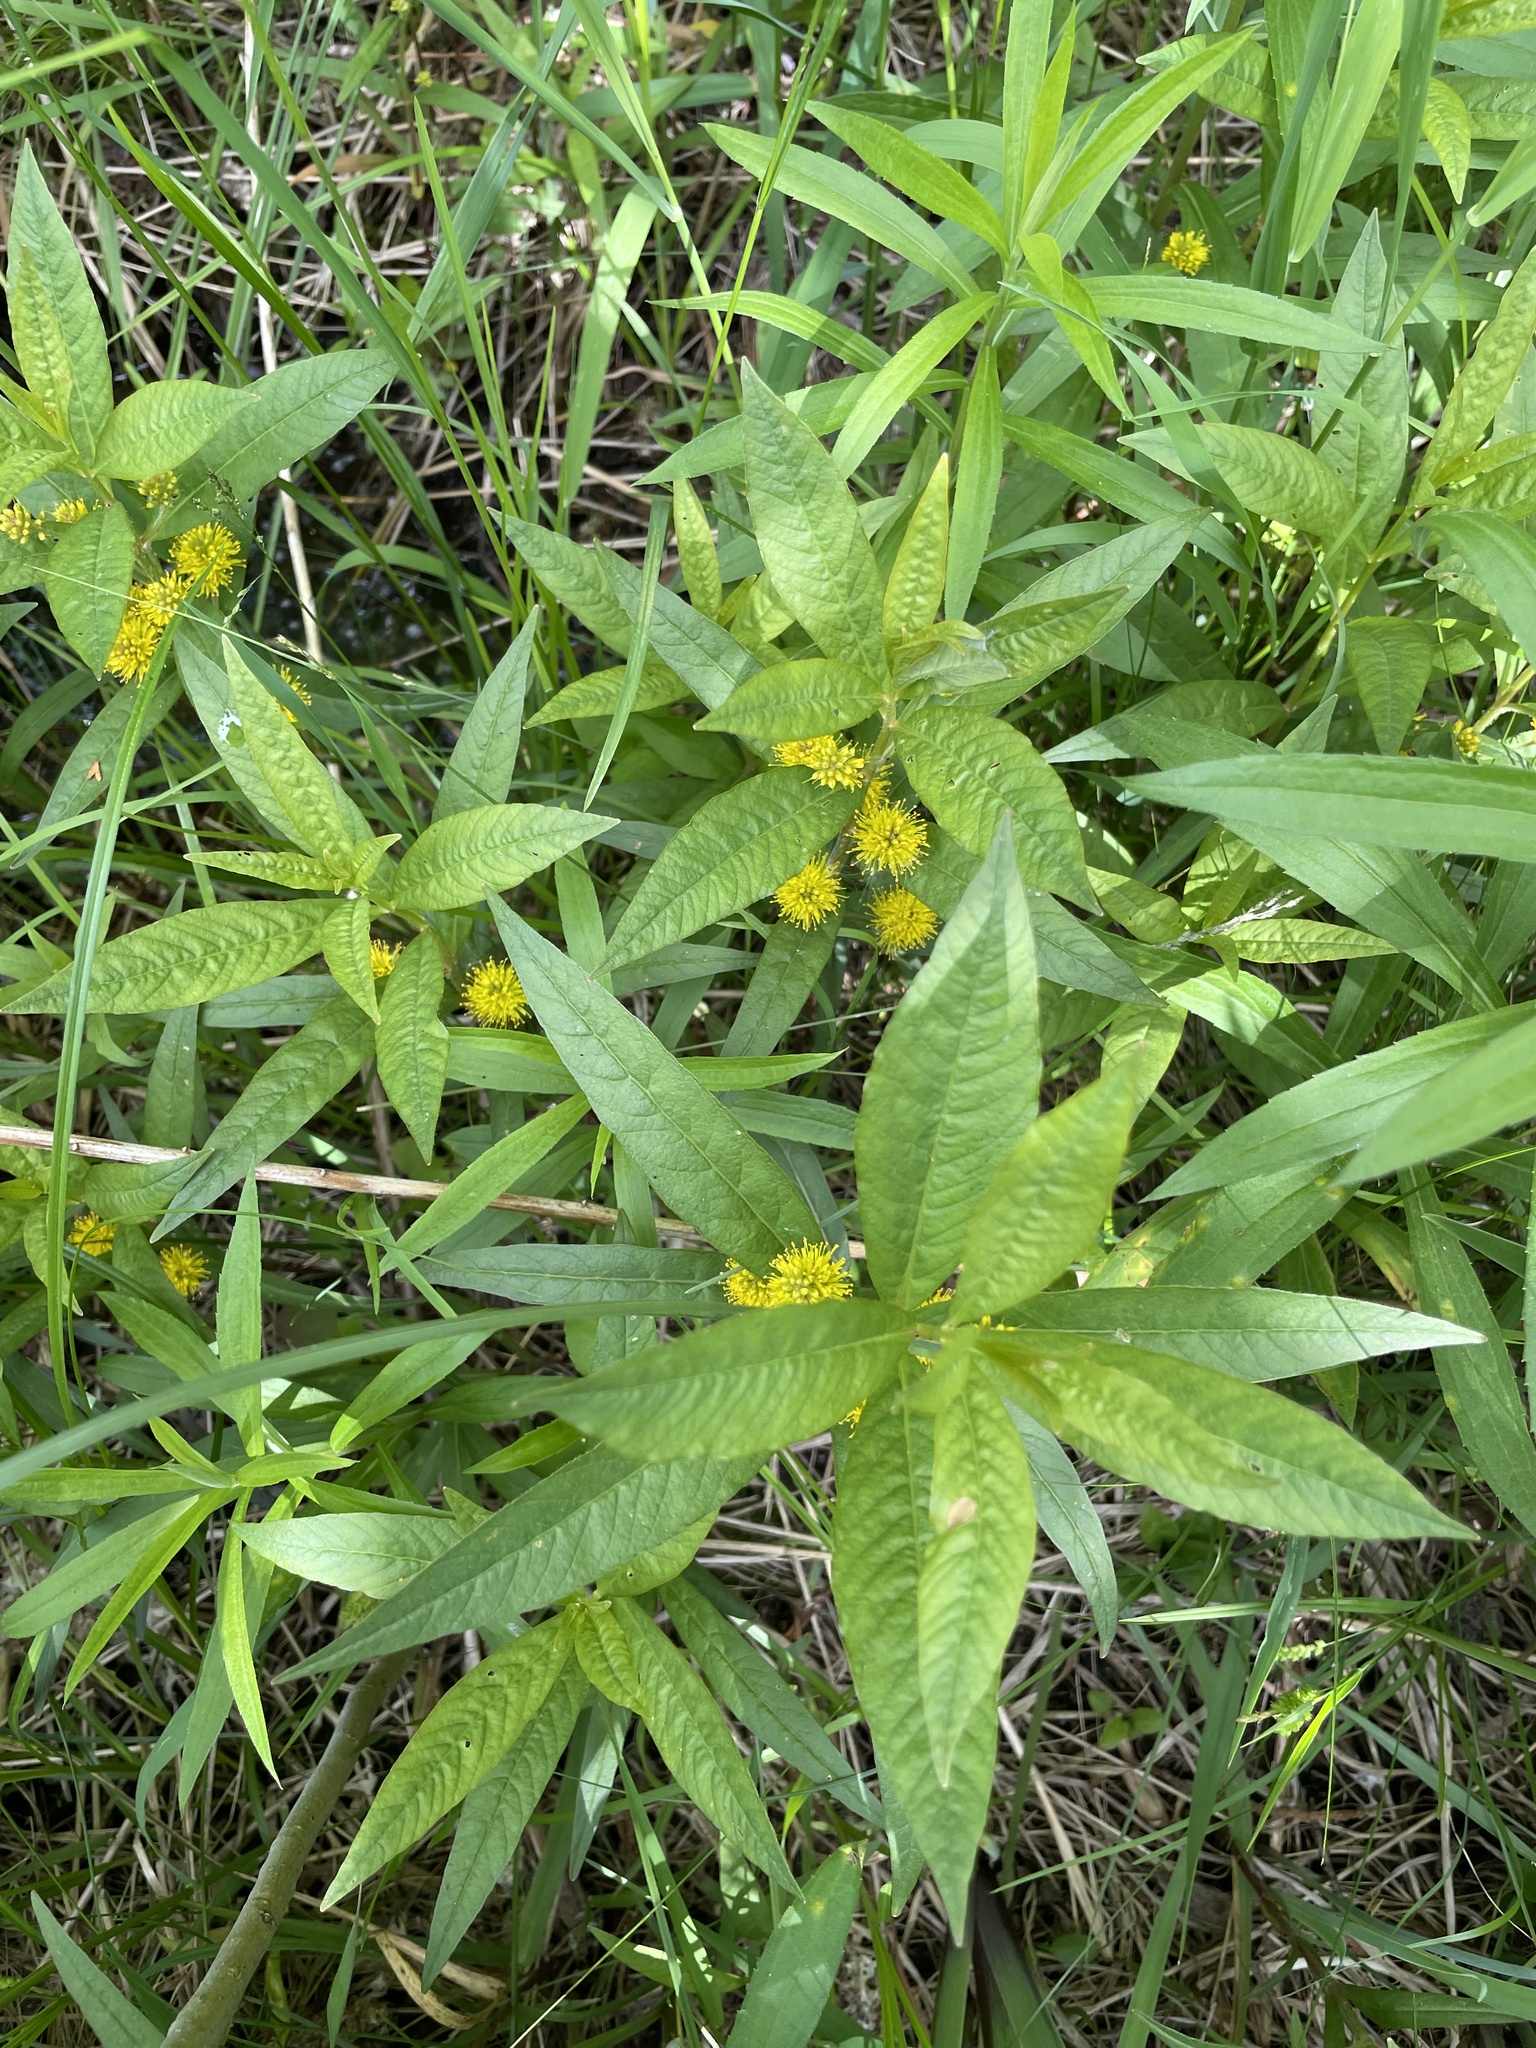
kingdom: Plantae
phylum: Tracheophyta
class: Magnoliopsida
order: Ericales
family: Primulaceae
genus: Lysimachia
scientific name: Lysimachia thyrsiflora
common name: Tufted loosestrife
